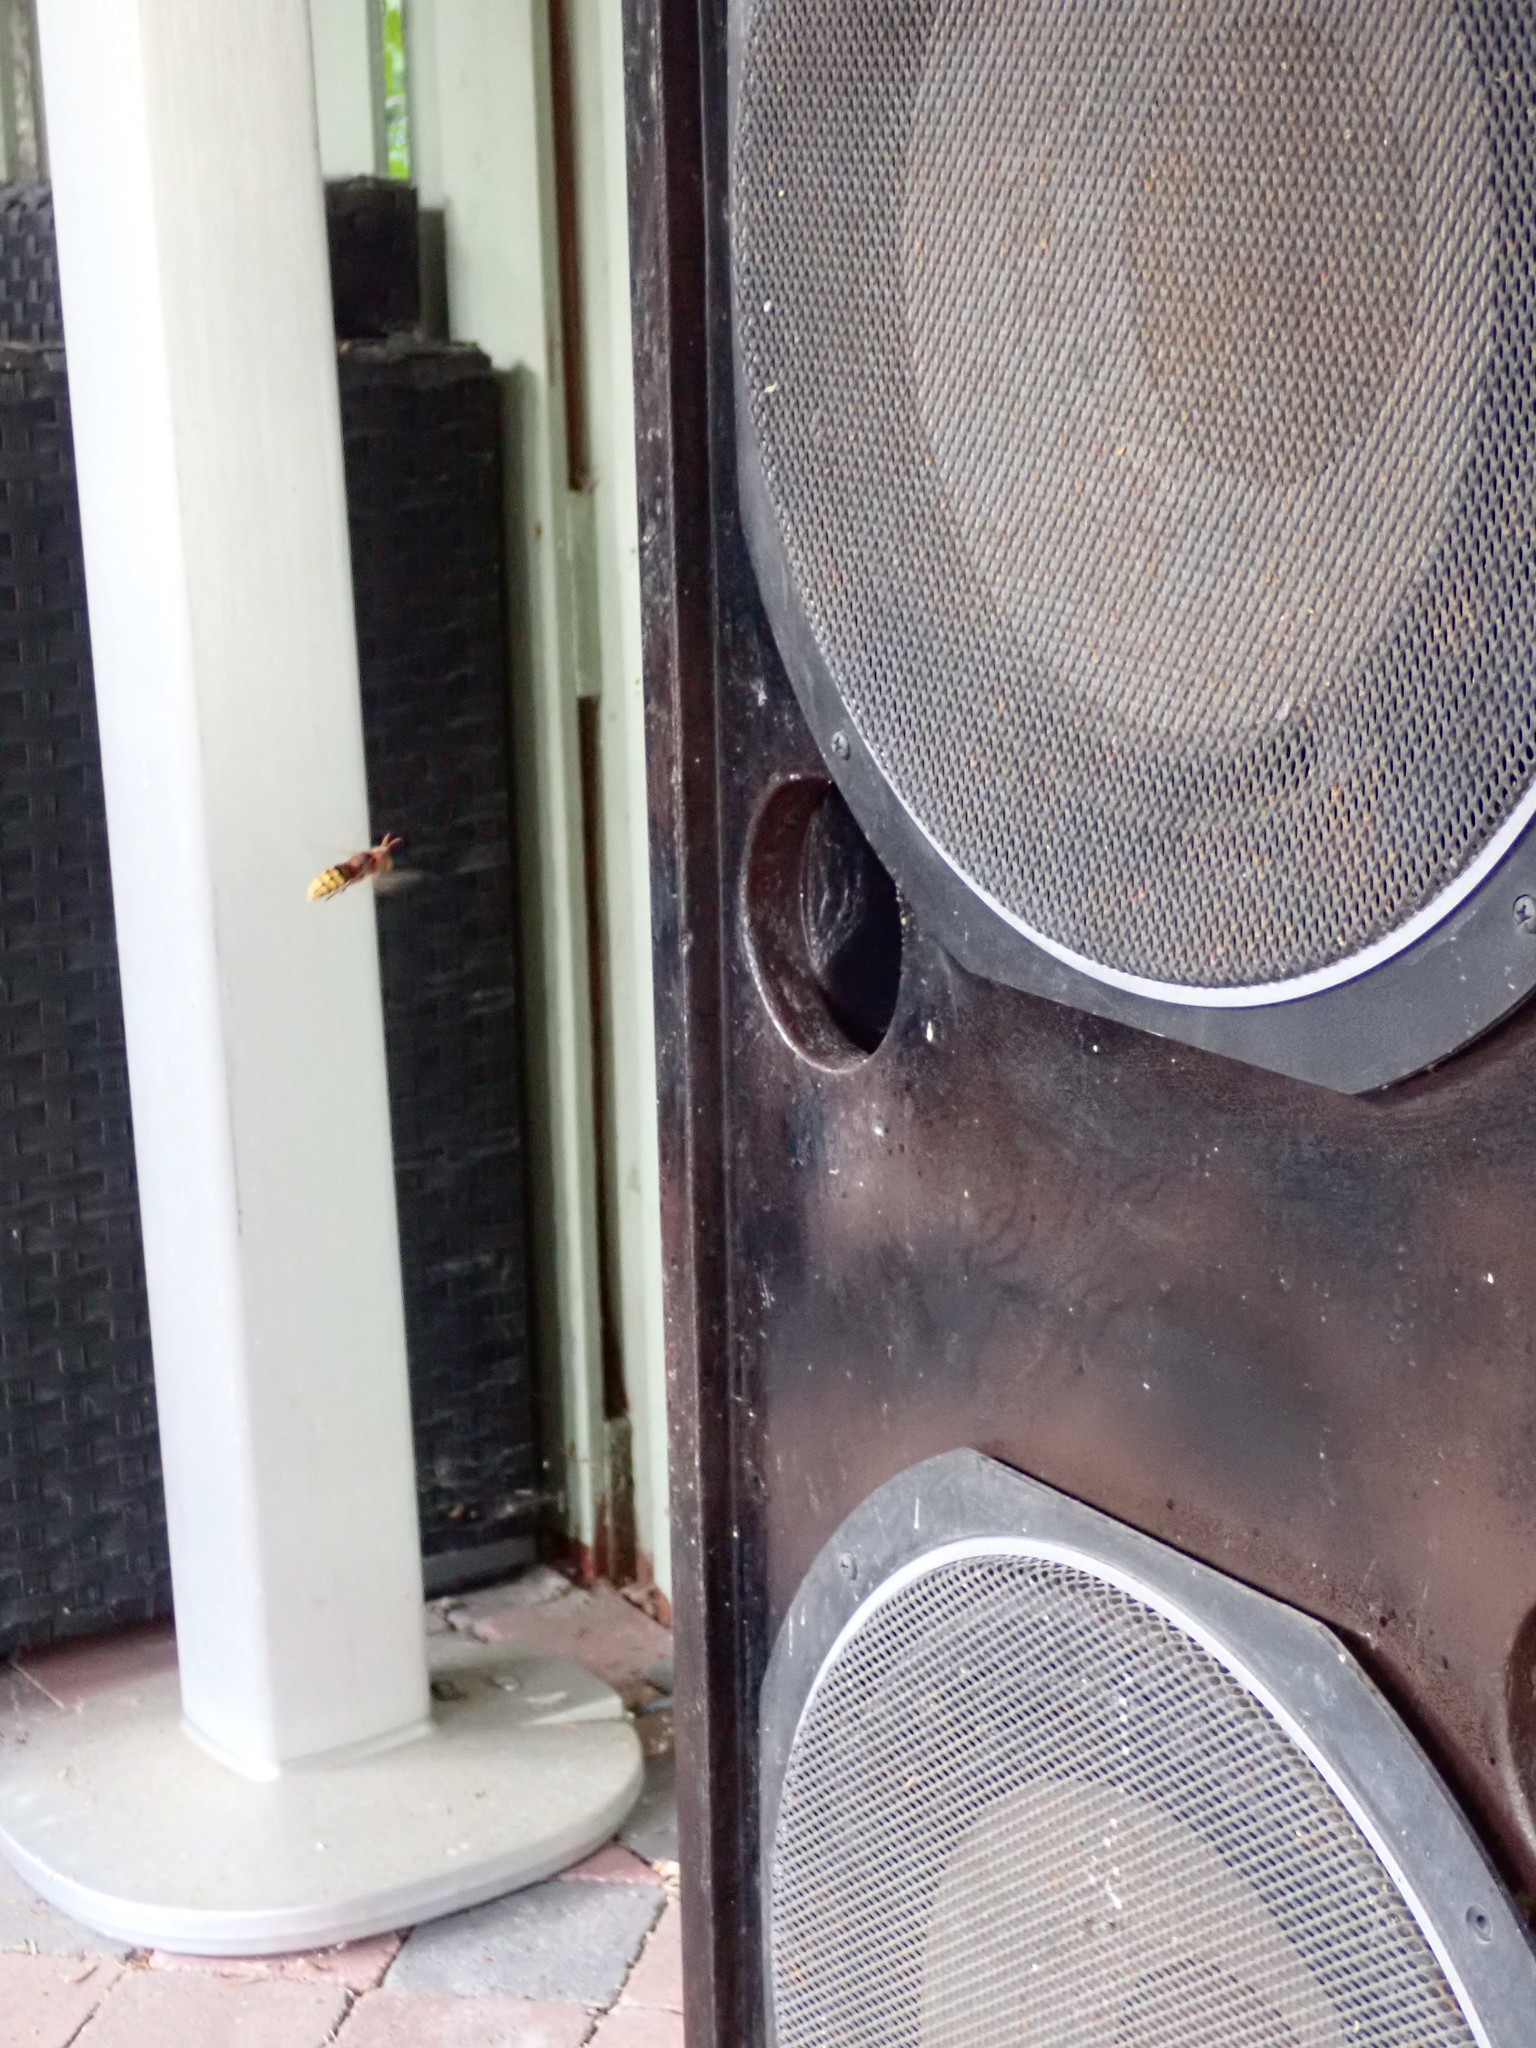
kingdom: Animalia
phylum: Arthropoda
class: Insecta
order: Hymenoptera
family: Vespidae
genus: Vespa
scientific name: Vespa crabro
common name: Hornet
